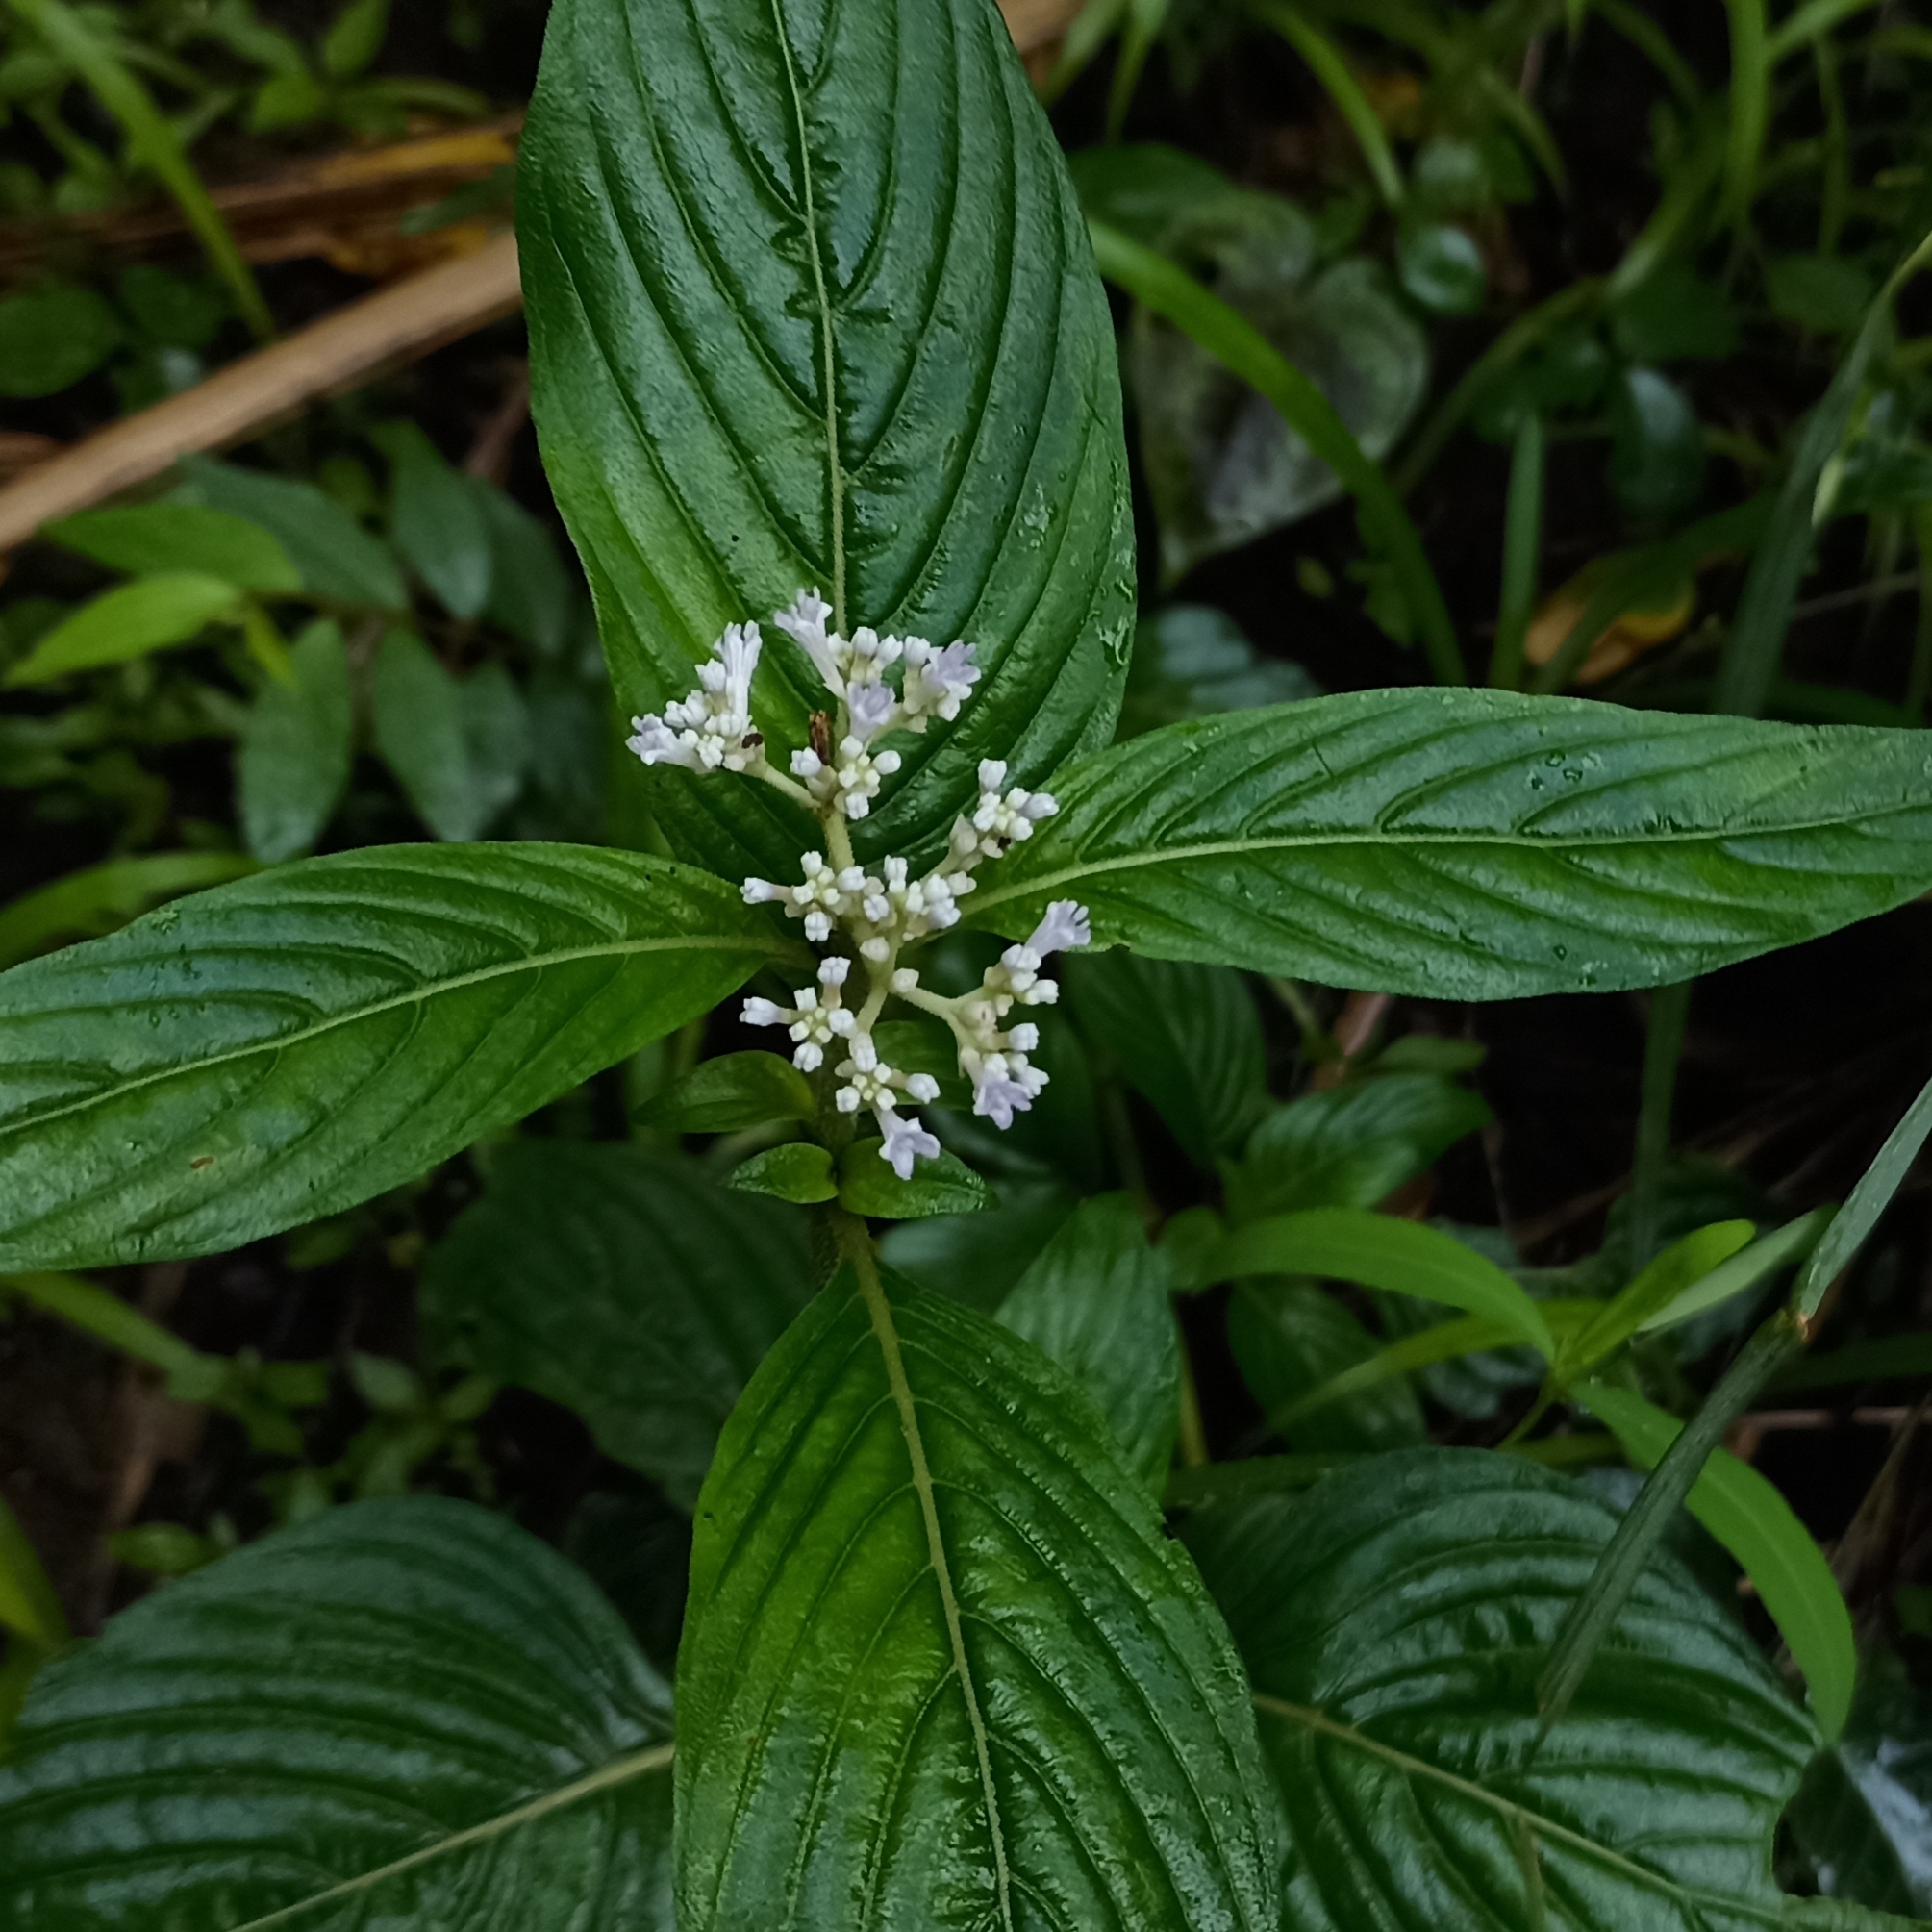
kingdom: Plantae
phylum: Tracheophyta
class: Magnoliopsida
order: Gentianales
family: Rubiaceae
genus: Knoxia
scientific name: Knoxia sumatrensis
